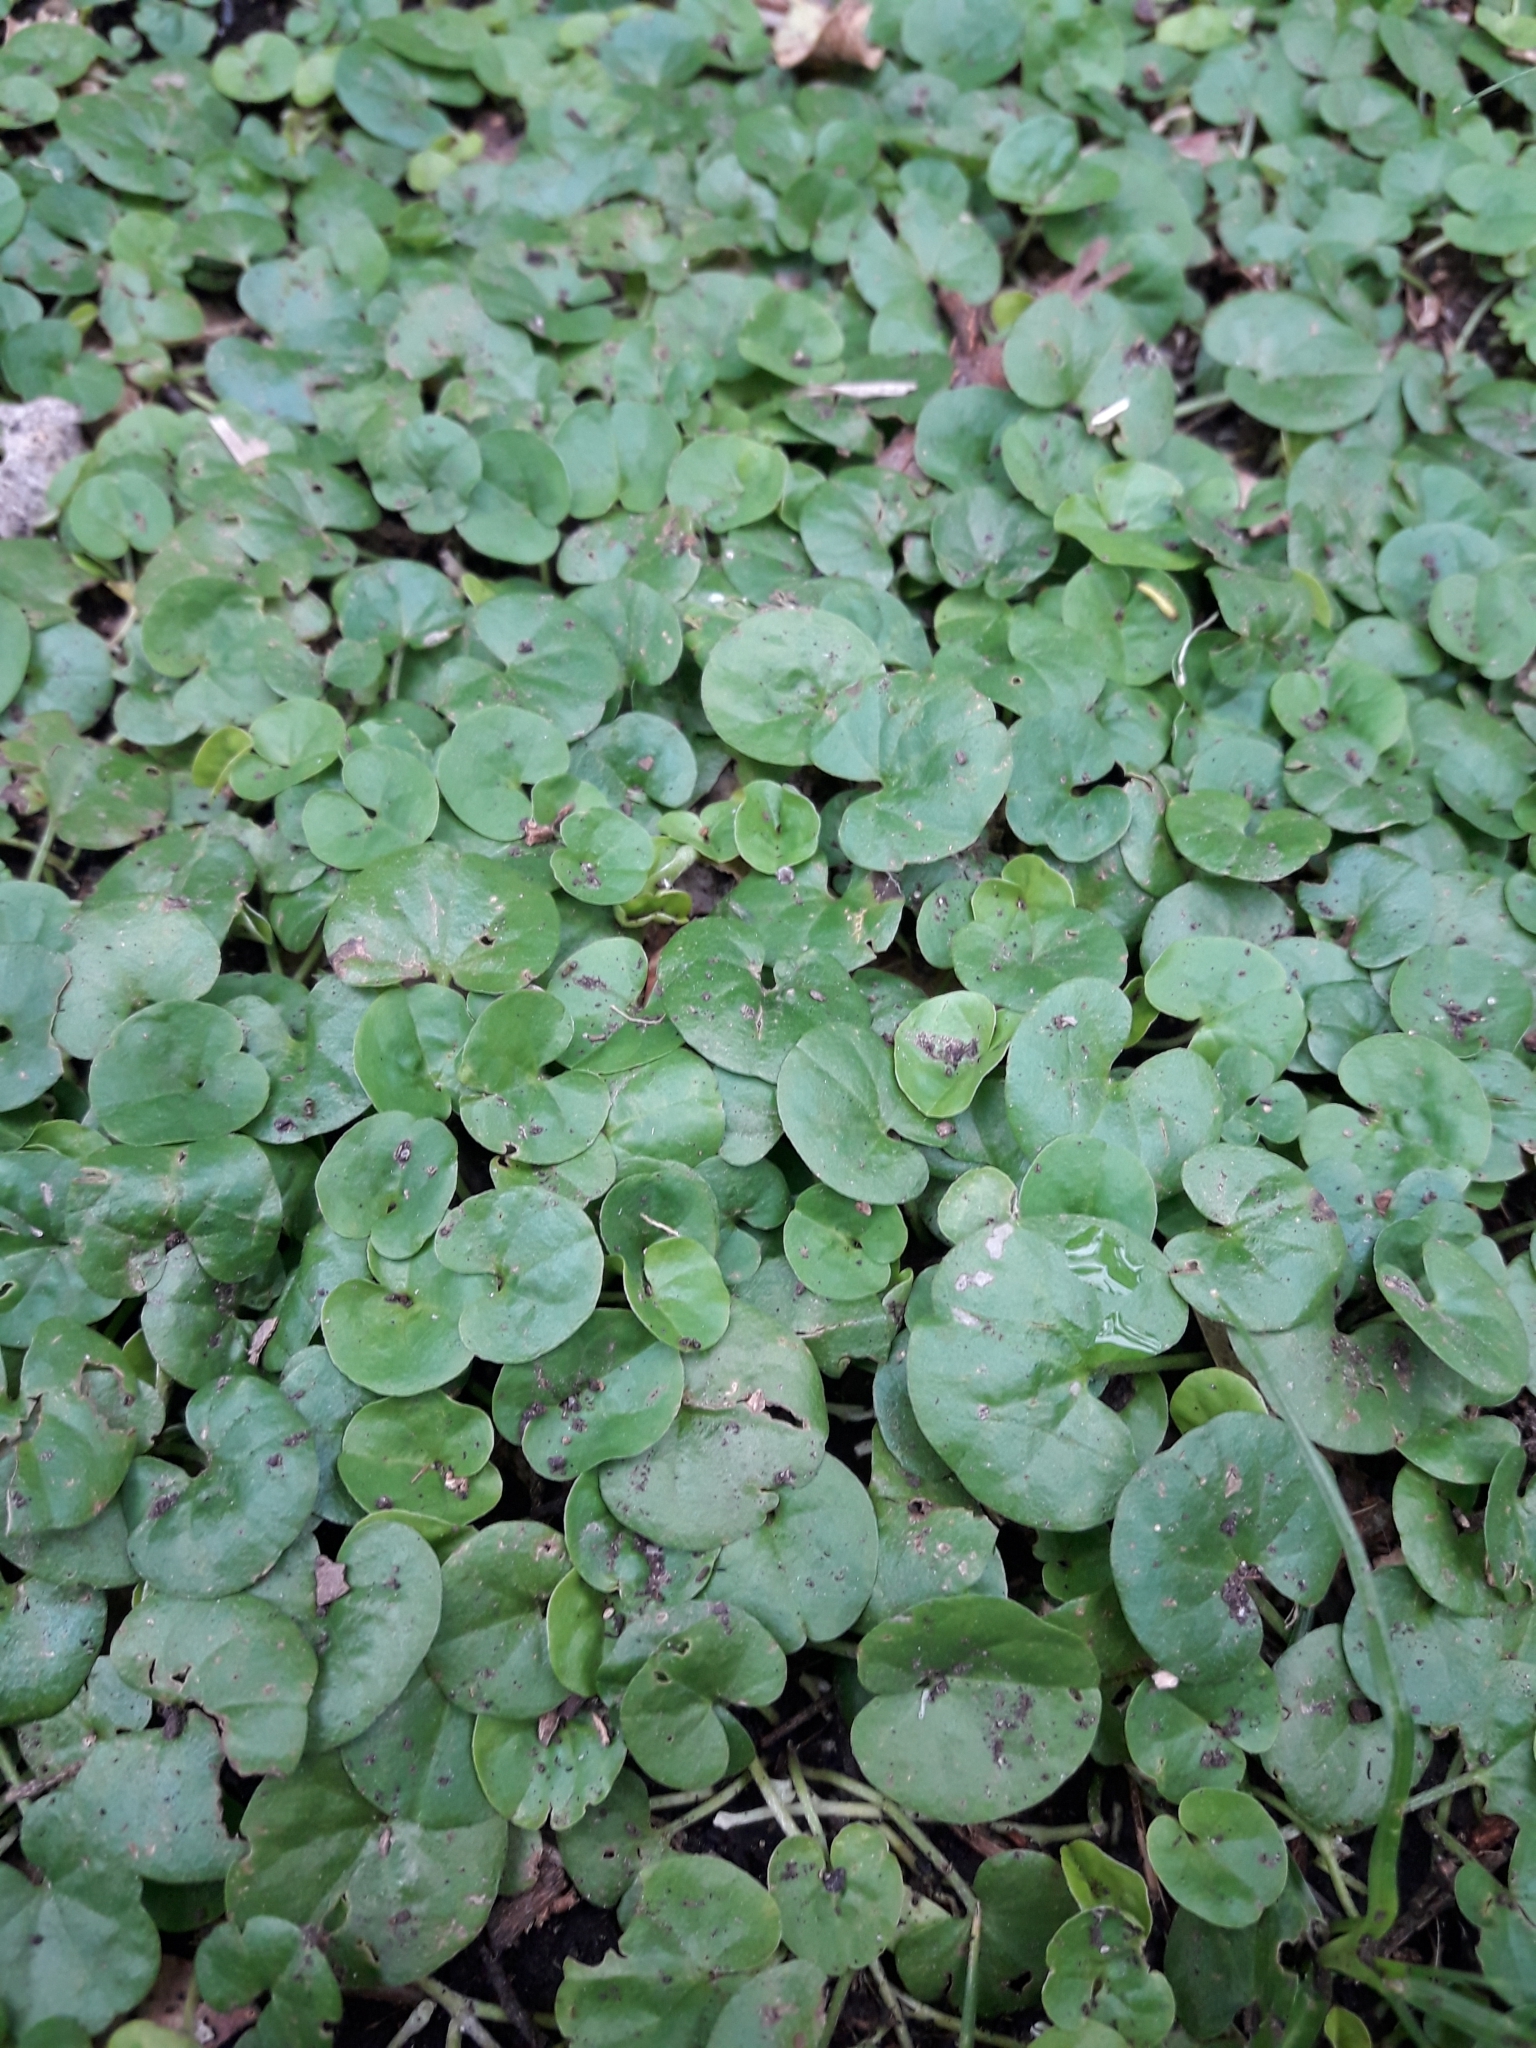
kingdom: Plantae
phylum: Tracheophyta
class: Magnoliopsida
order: Solanales
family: Convolvulaceae
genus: Dichondra
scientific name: Dichondra repens
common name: Kidneyweed
